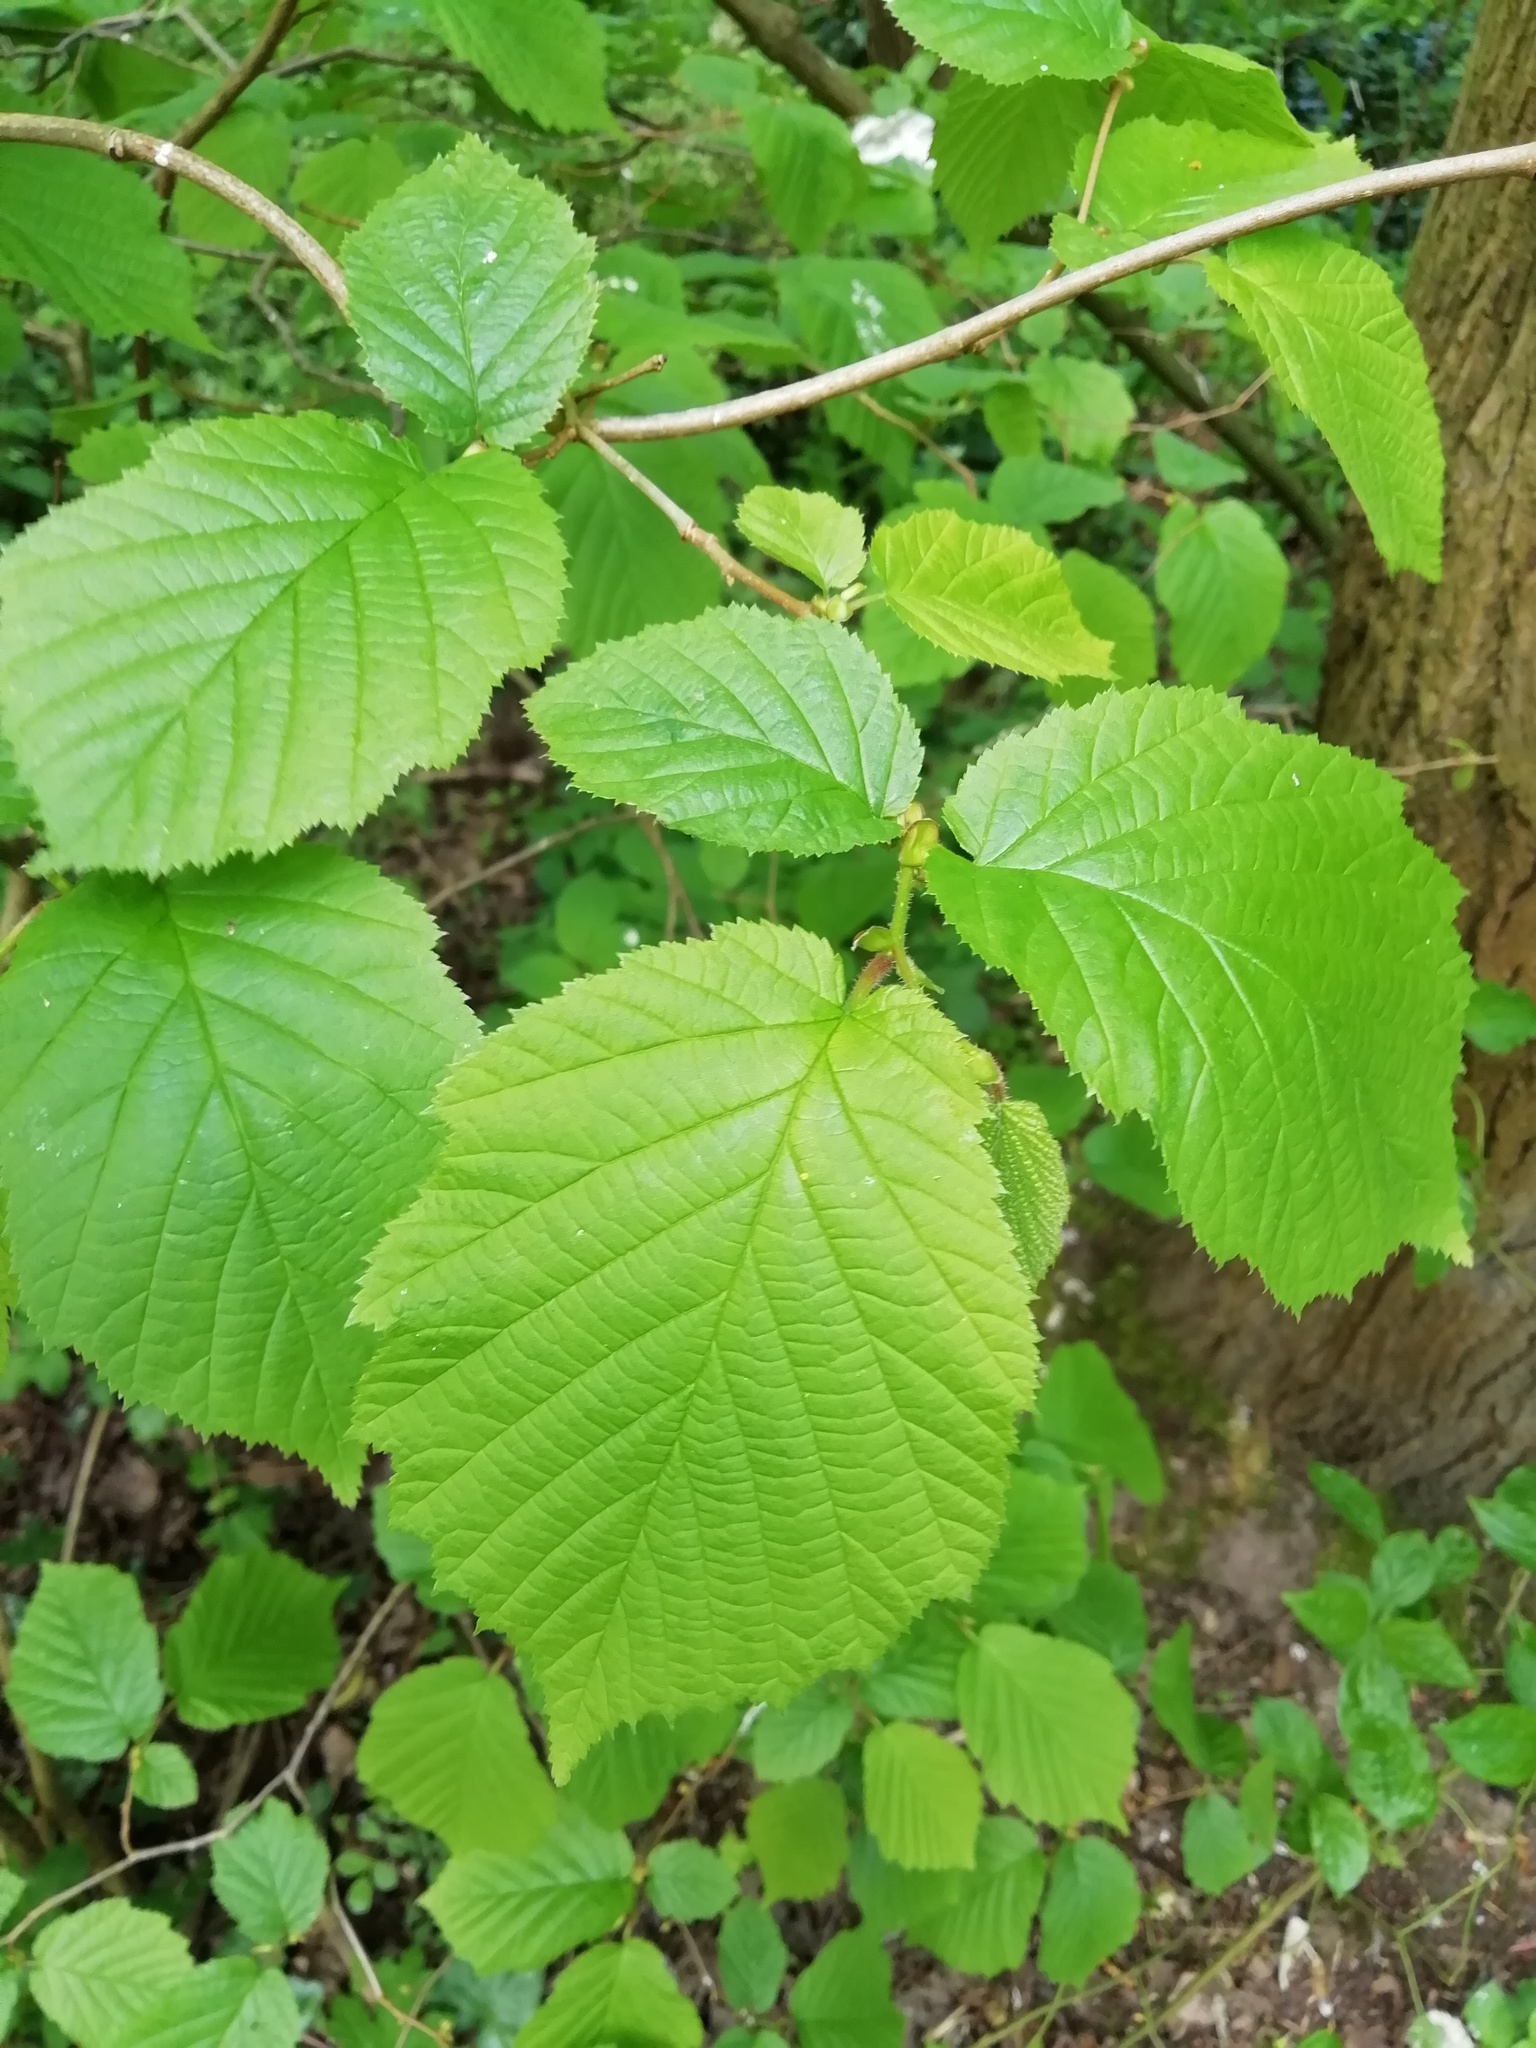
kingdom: Plantae
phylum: Tracheophyta
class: Magnoliopsida
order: Fagales
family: Betulaceae
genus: Corylus
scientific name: Corylus avellana
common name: European hazel
